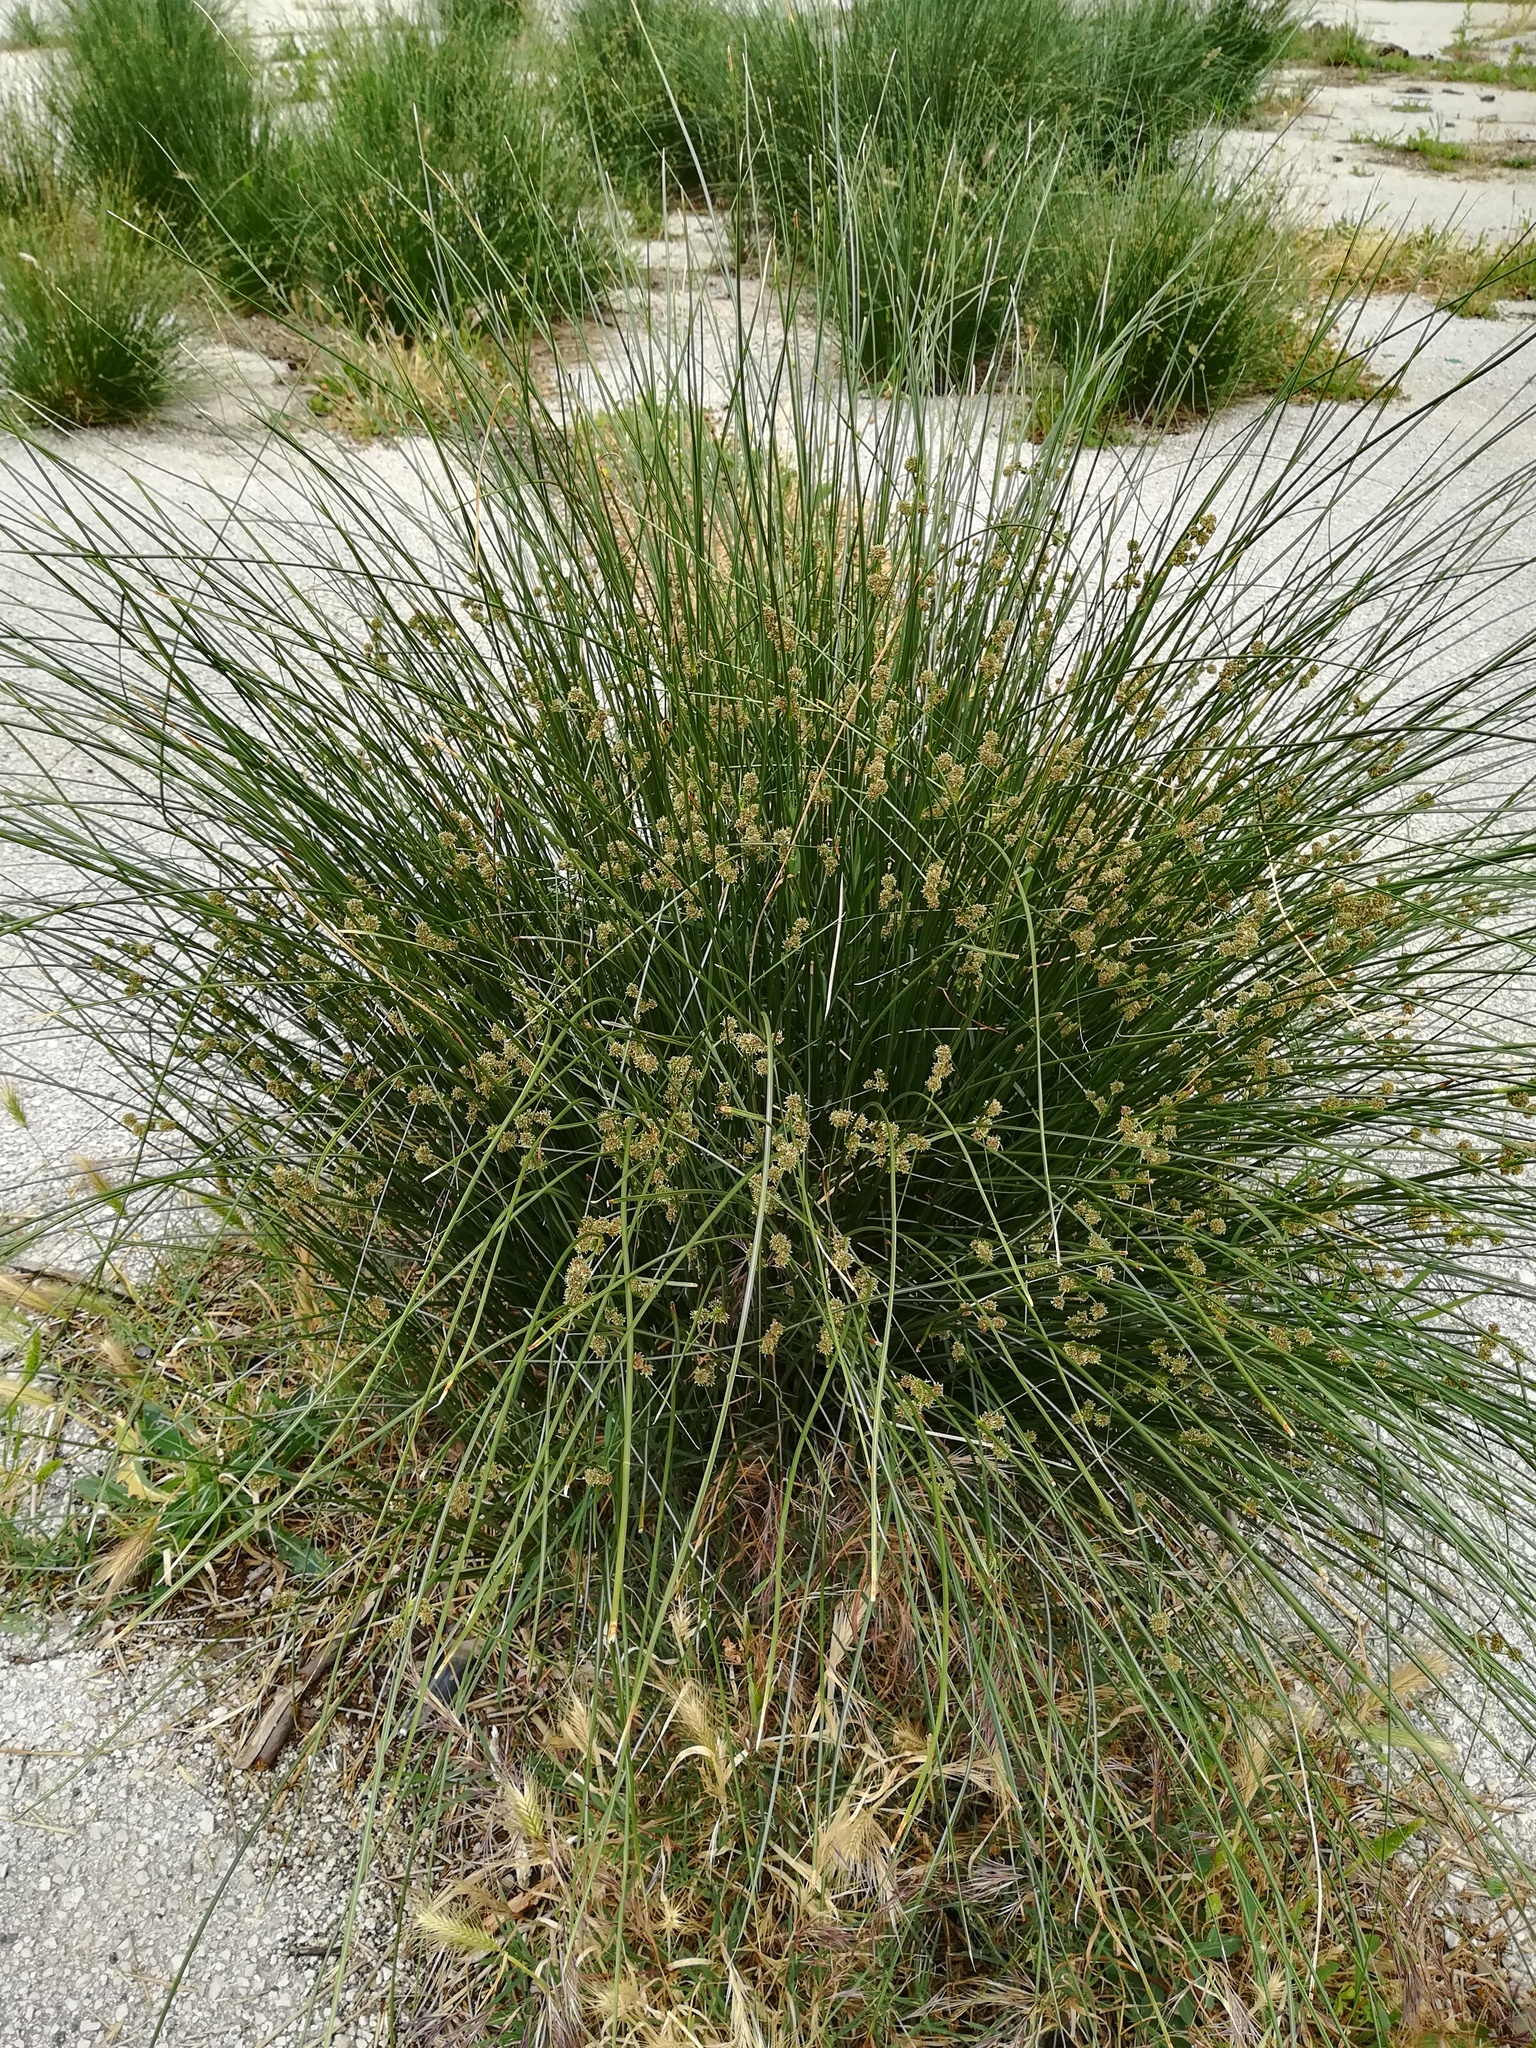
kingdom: Plantae
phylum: Tracheophyta
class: Liliopsida
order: Poales
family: Cyperaceae
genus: Scirpoides
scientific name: Scirpoides holoschoenus
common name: Round-headed club-rush
